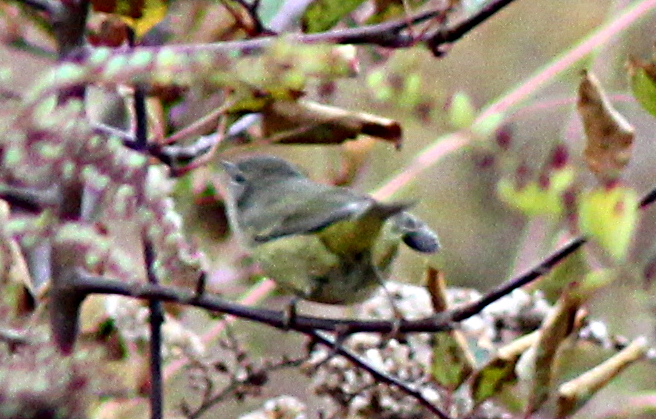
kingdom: Animalia
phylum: Chordata
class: Aves
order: Passeriformes
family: Parulidae
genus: Leiothlypis
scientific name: Leiothlypis celata
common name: Orange-crowned warbler
